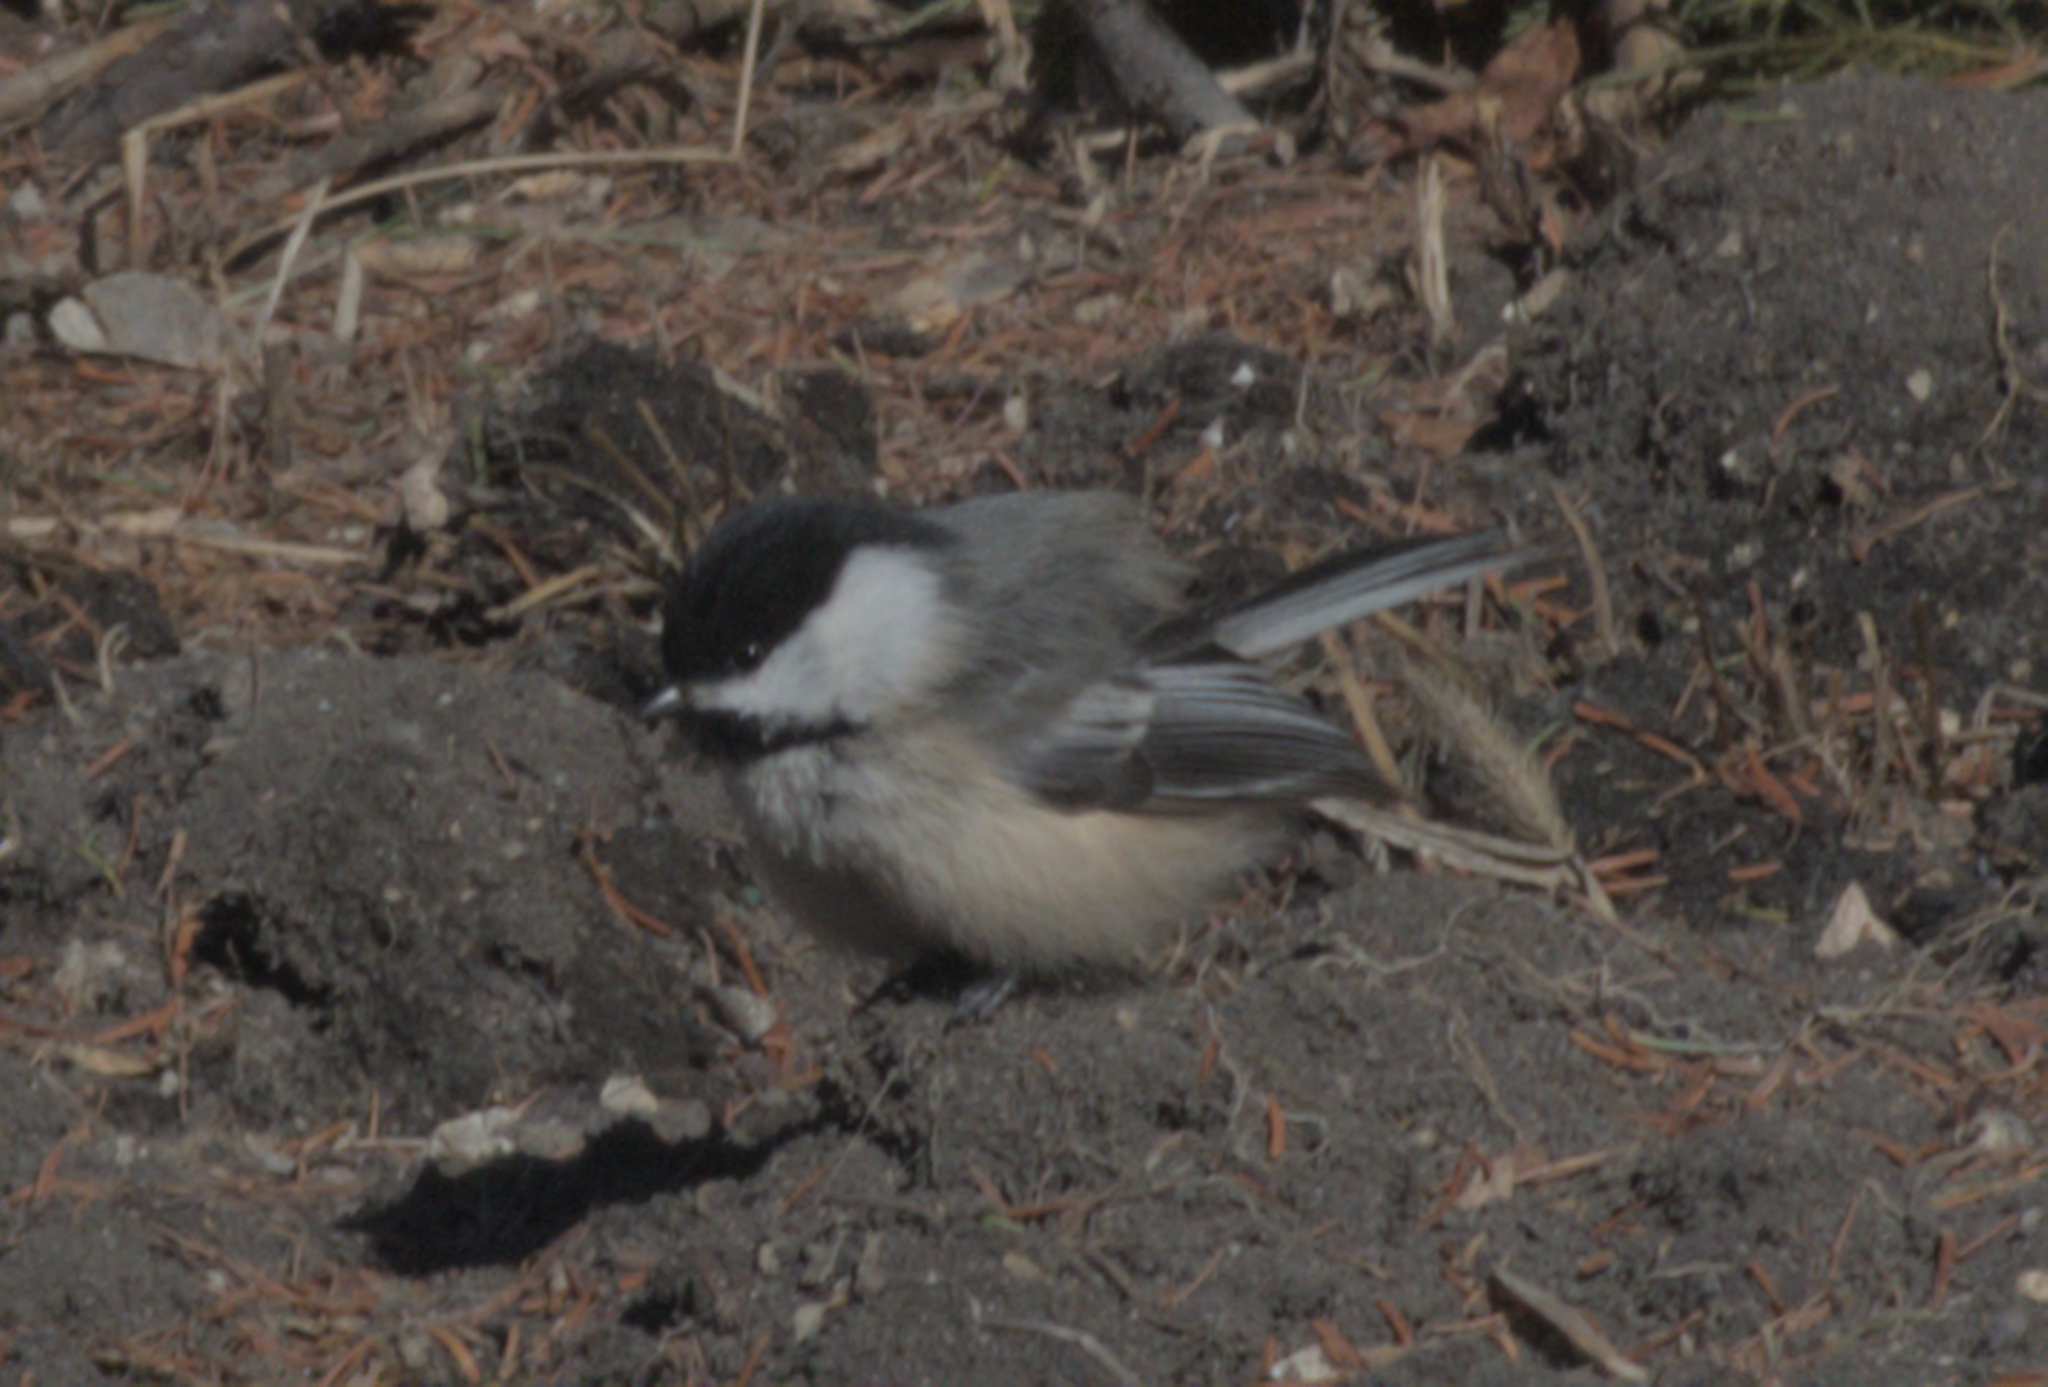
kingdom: Animalia
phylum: Chordata
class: Aves
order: Passeriformes
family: Paridae
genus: Poecile
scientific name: Poecile atricapillus
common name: Black-capped chickadee
